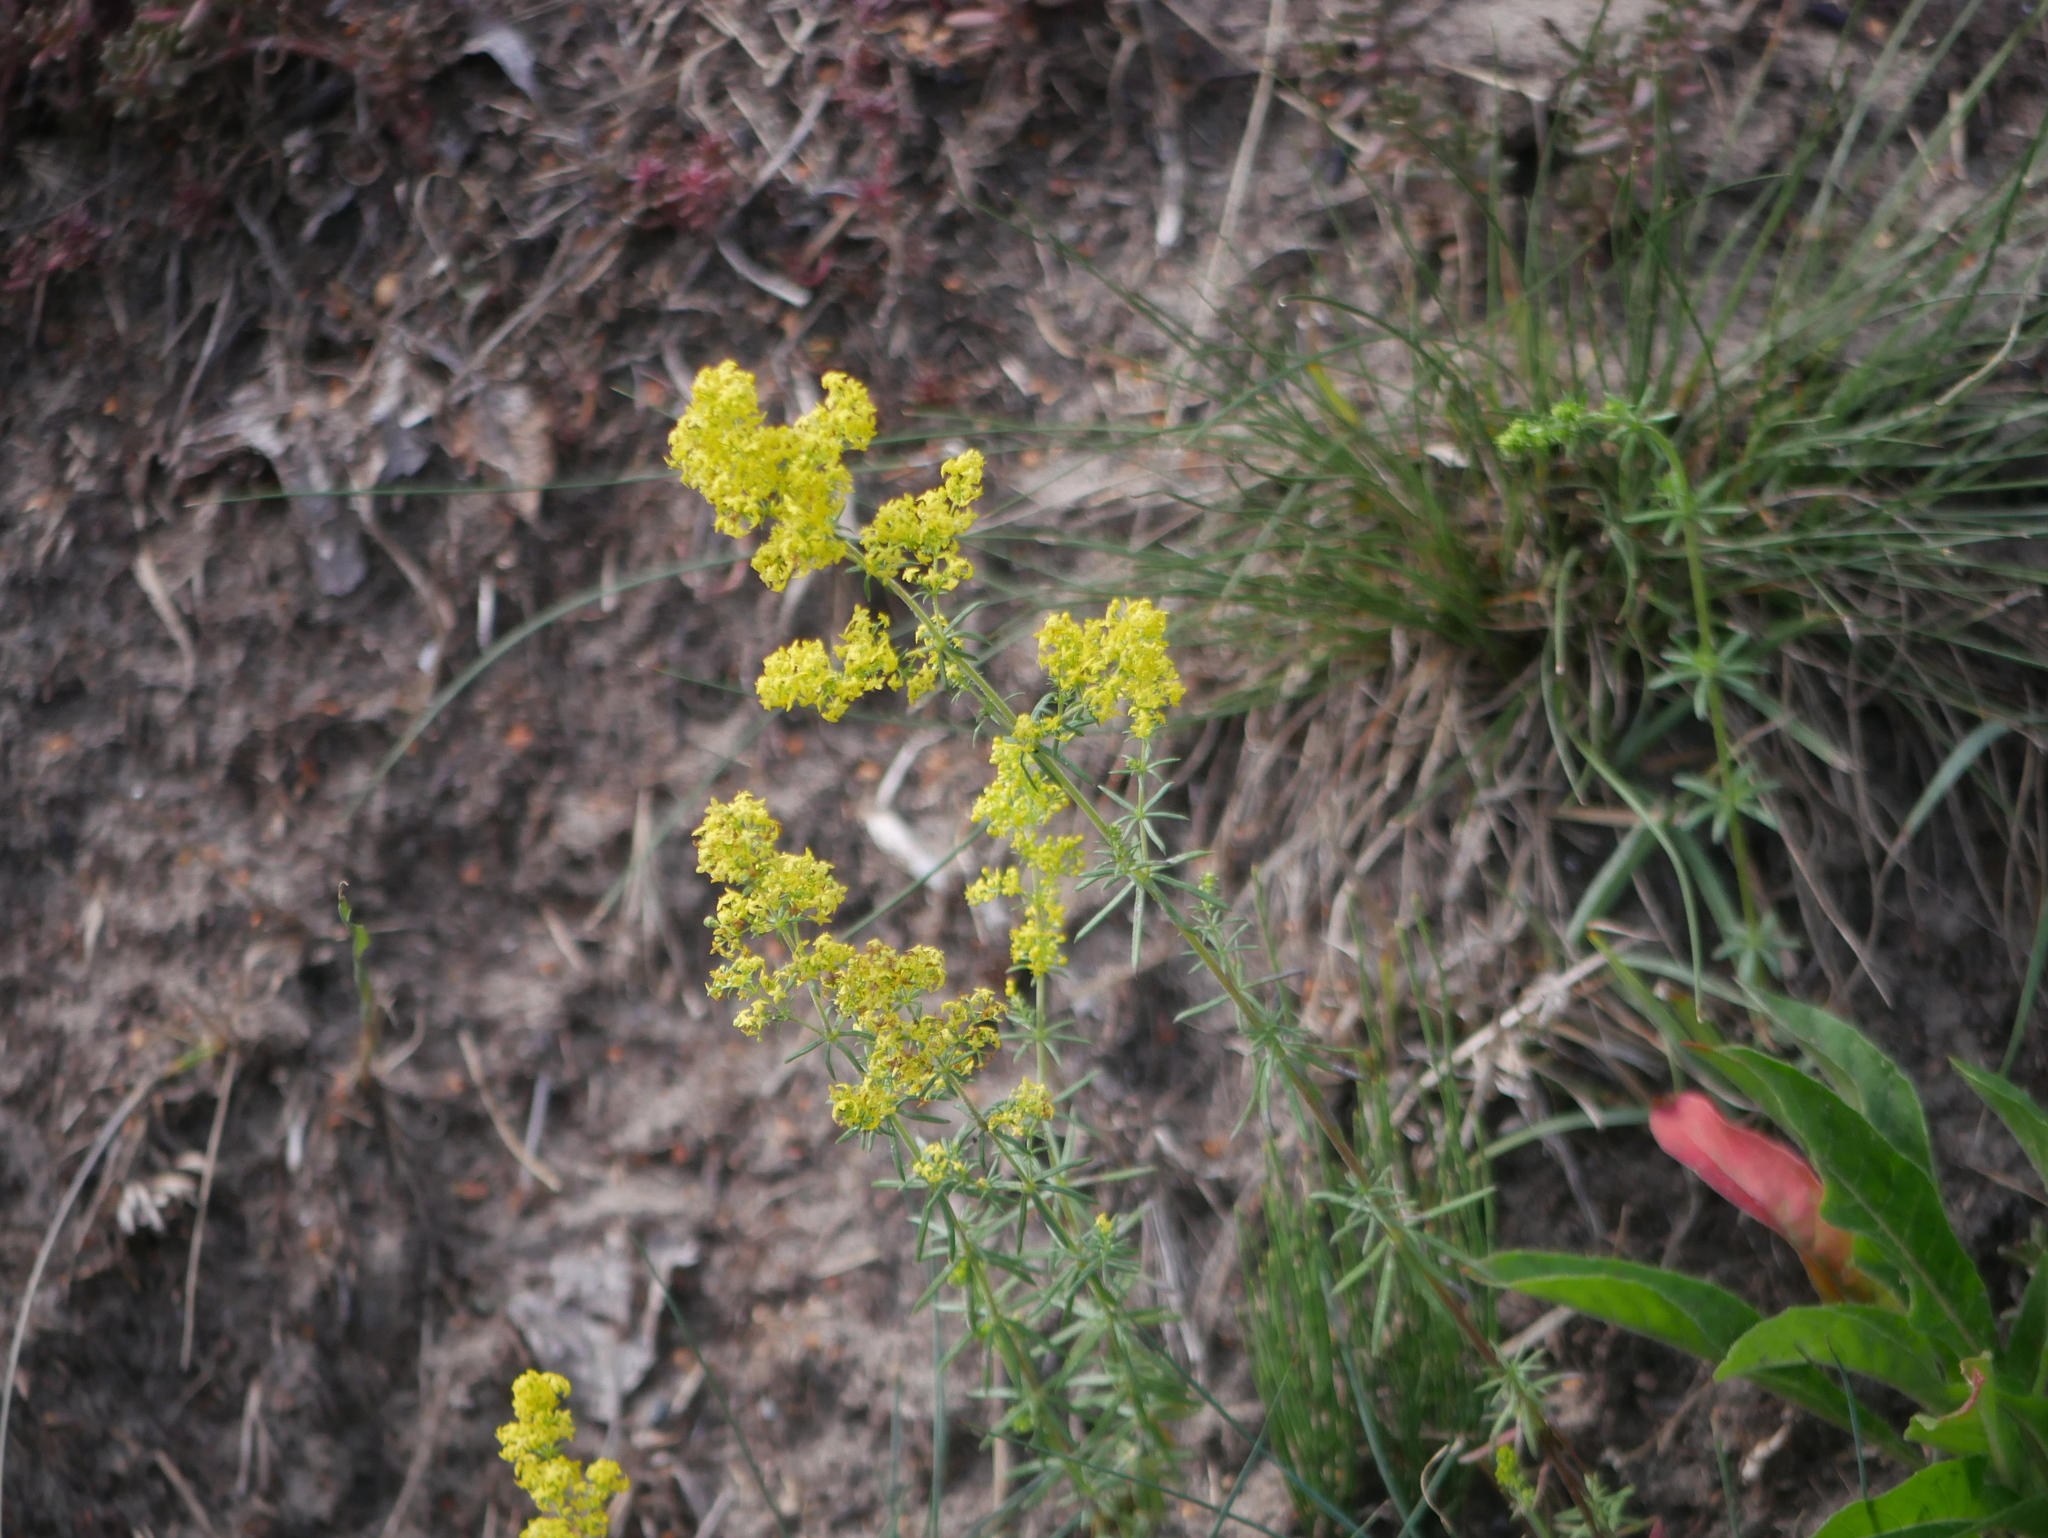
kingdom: Plantae
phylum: Tracheophyta
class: Magnoliopsida
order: Gentianales
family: Rubiaceae
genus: Galium
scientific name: Galium verum
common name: Lady's bedstraw
